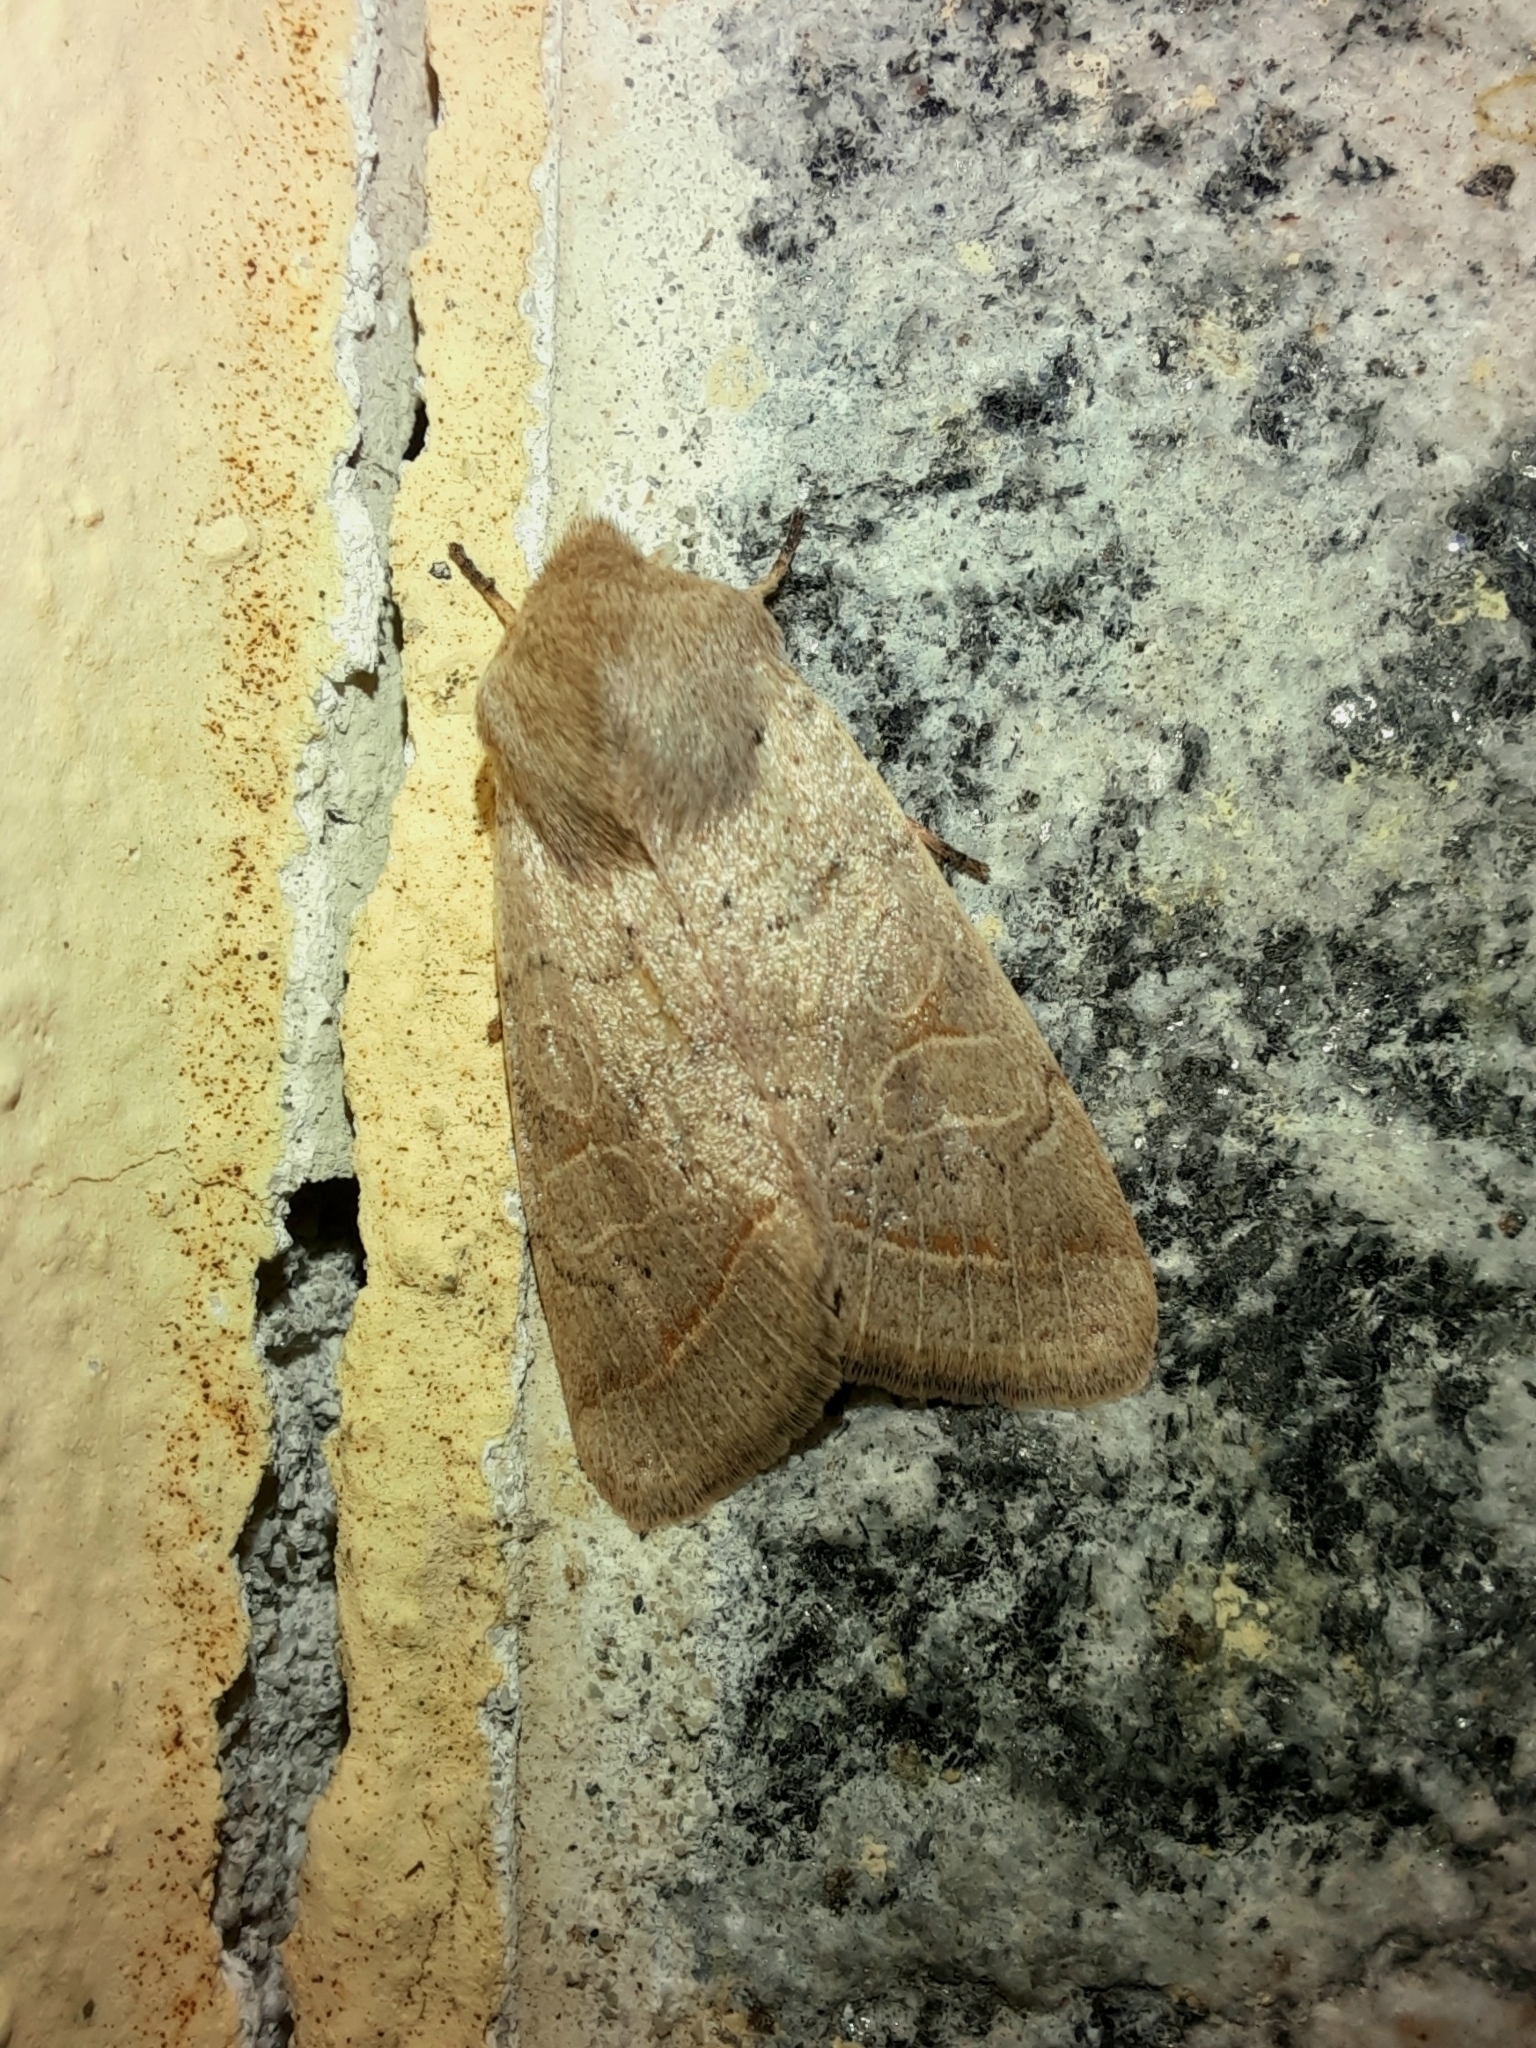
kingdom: Animalia
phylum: Arthropoda
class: Insecta
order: Lepidoptera
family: Noctuidae
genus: Orthosia
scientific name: Orthosia cerasi
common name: Common quaker
